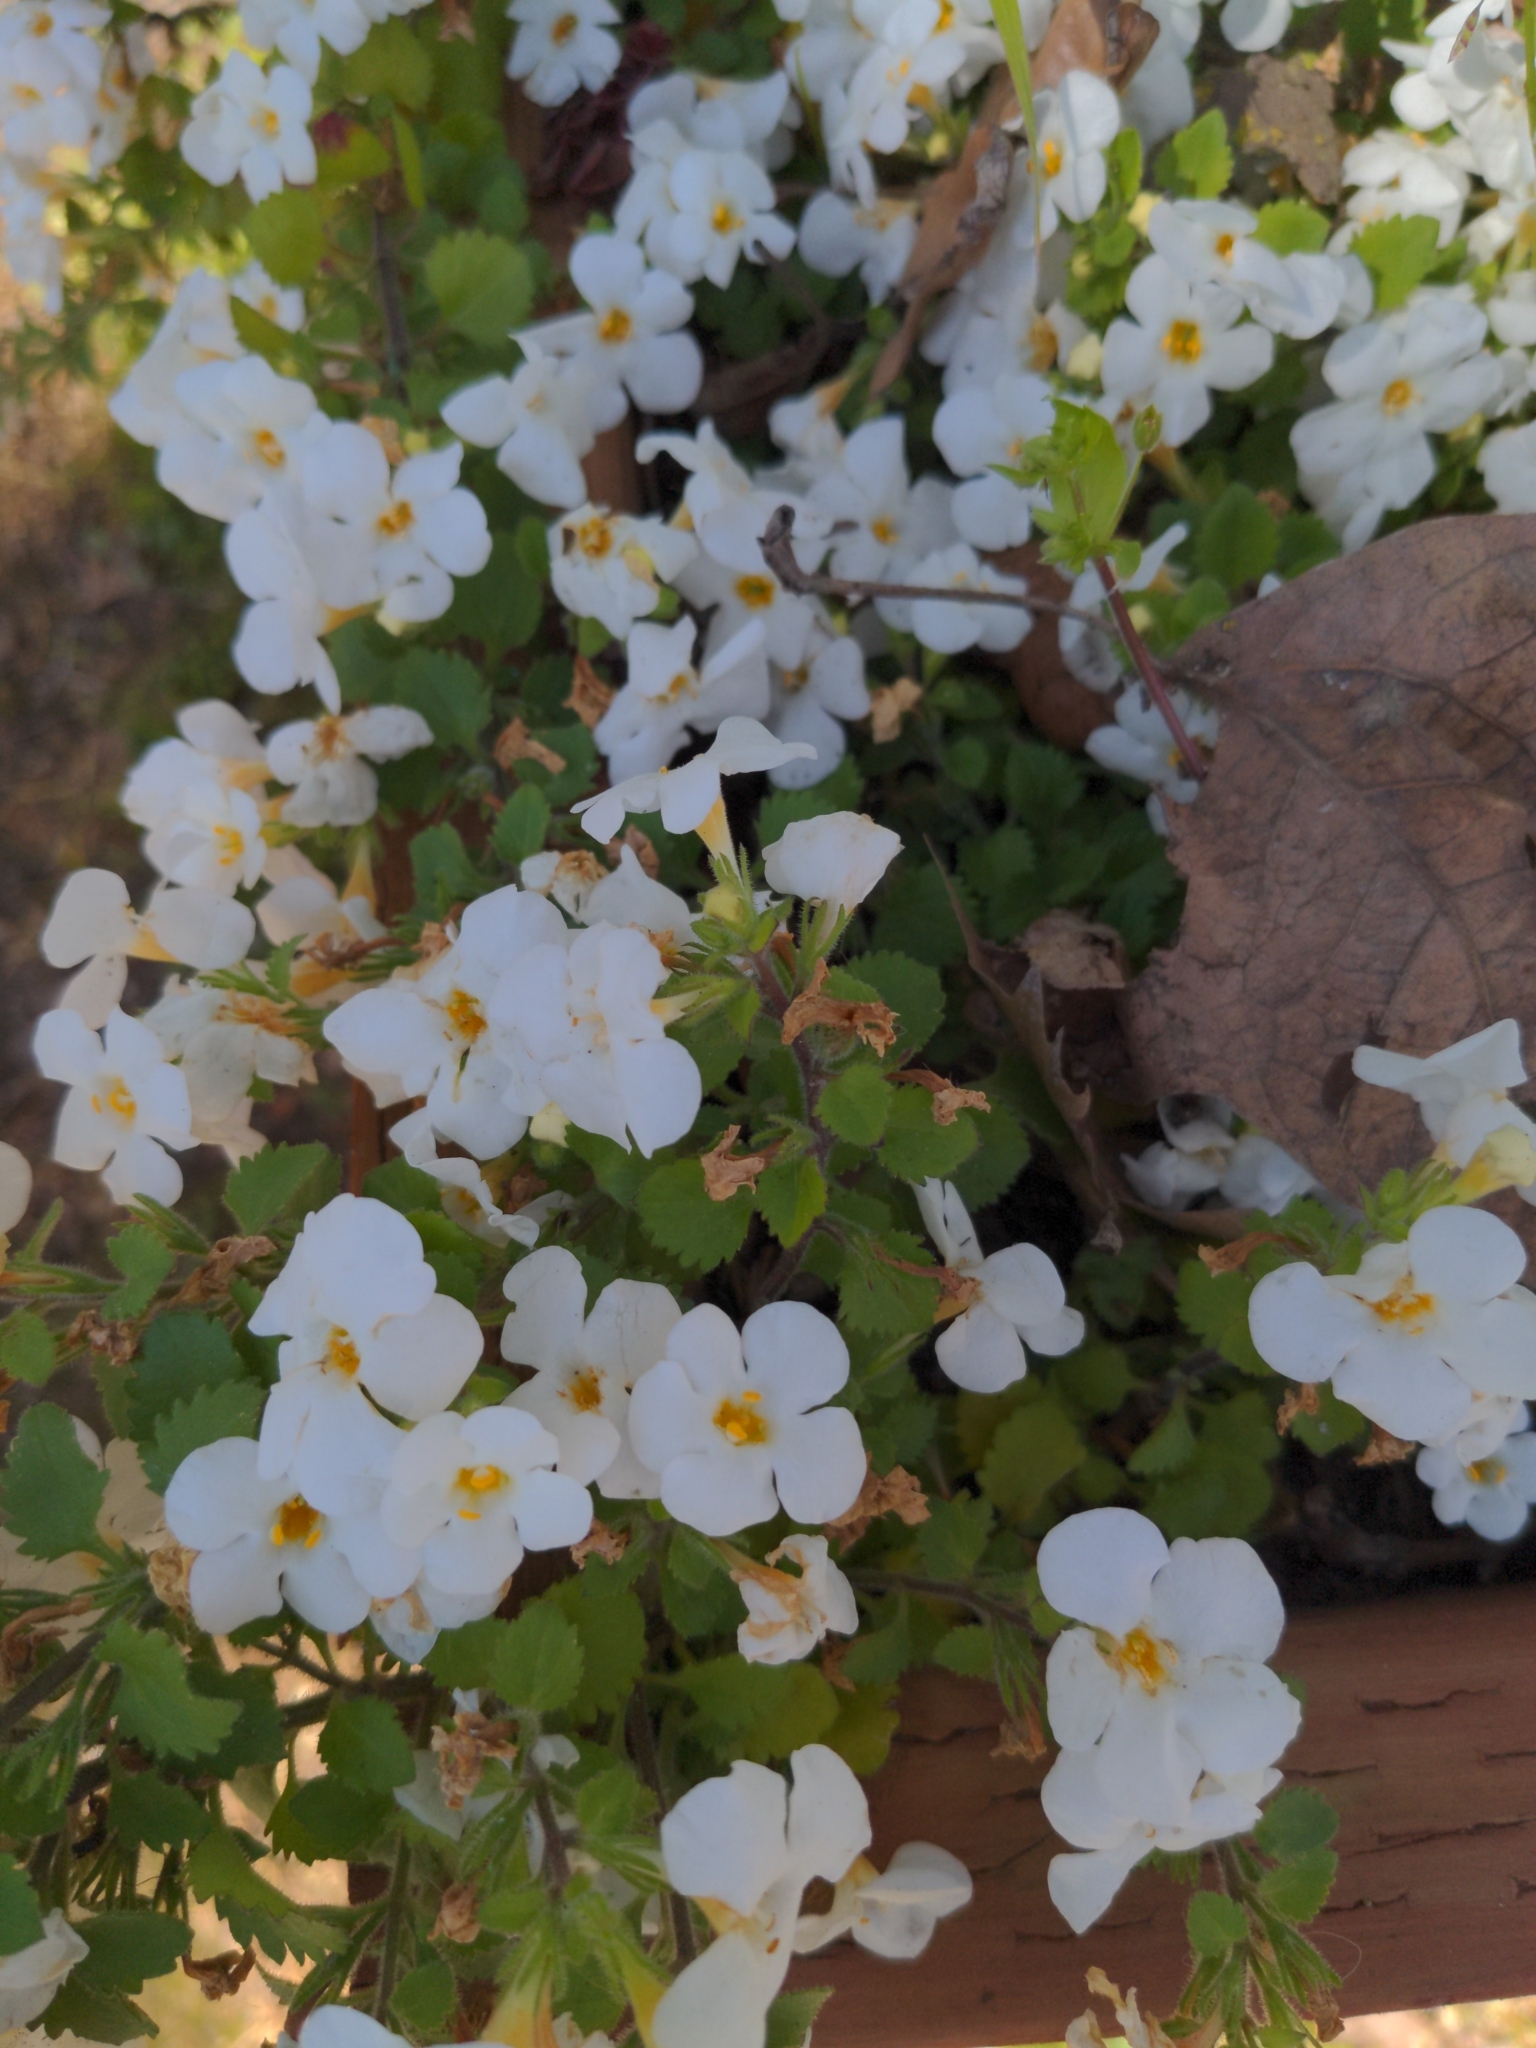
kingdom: Plantae
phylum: Tracheophyta
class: Magnoliopsida
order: Lamiales
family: Scrophulariaceae
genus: Chaenostoma
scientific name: Chaenostoma cordatum
